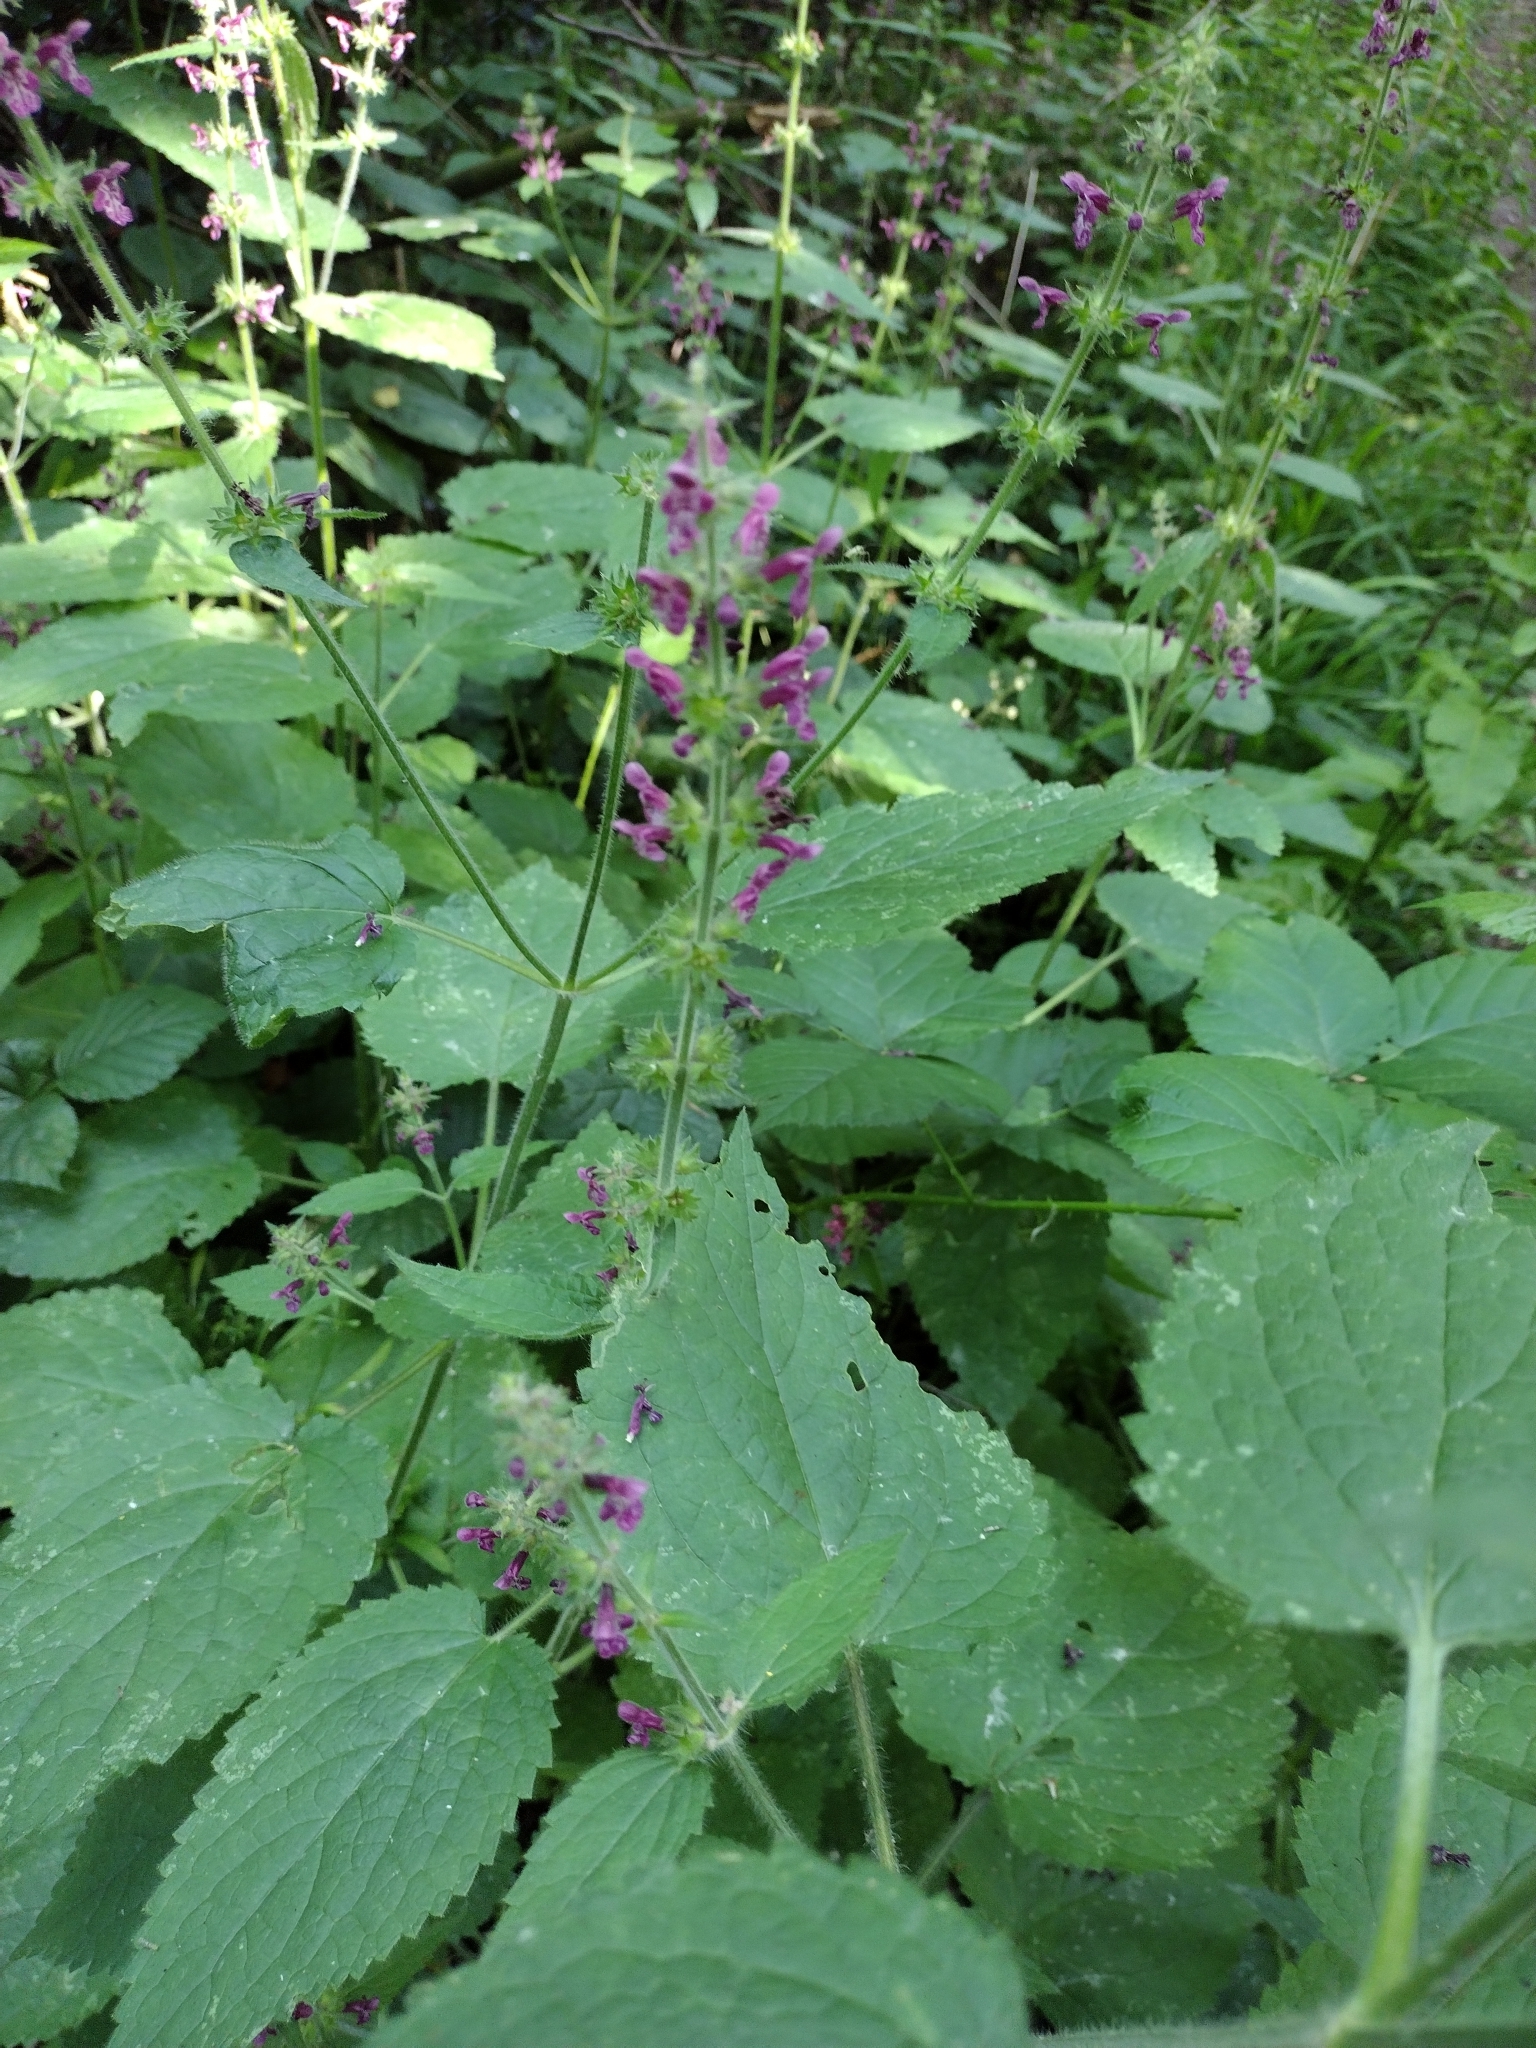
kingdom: Plantae
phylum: Tracheophyta
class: Magnoliopsida
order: Lamiales
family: Lamiaceae
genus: Stachys
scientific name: Stachys sylvatica
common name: Hedge woundwort
